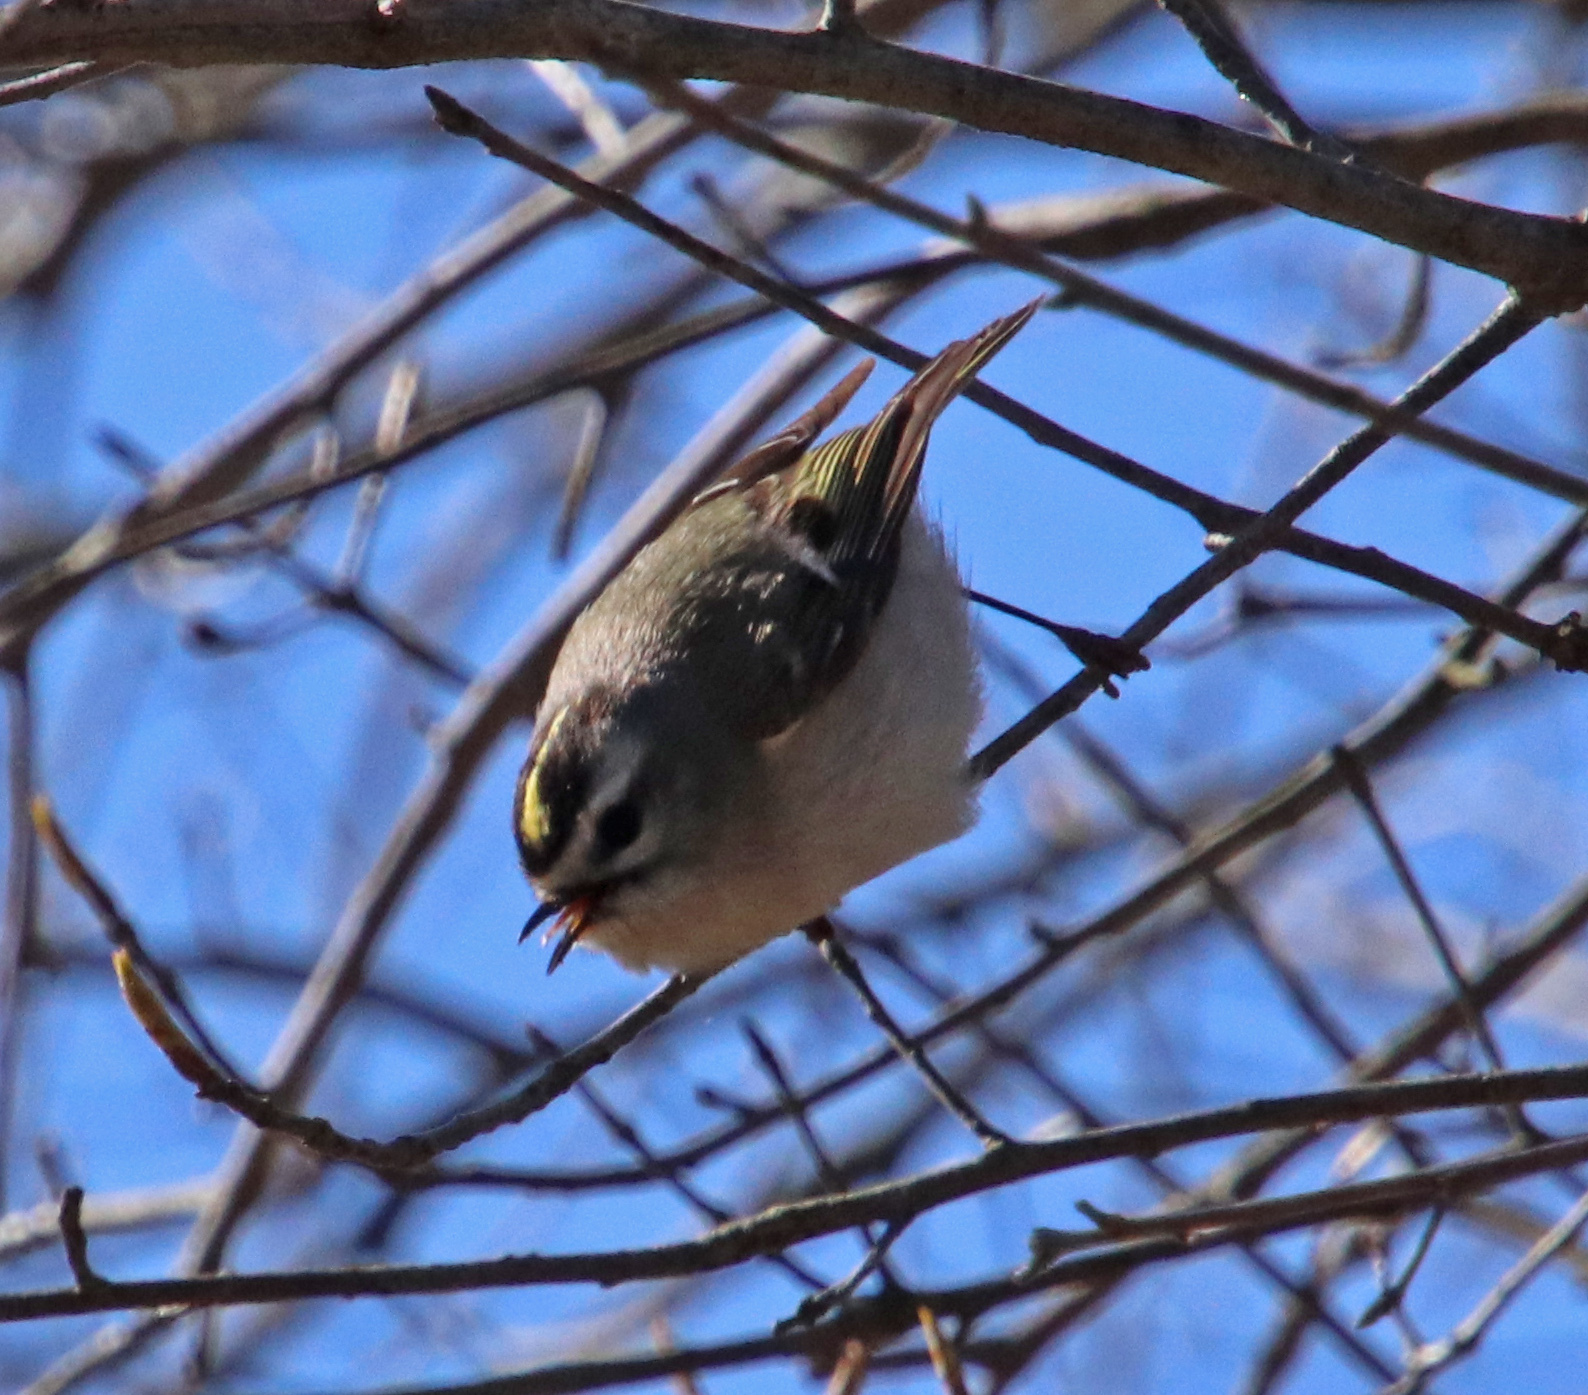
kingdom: Animalia
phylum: Chordata
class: Aves
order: Passeriformes
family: Regulidae
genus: Regulus
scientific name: Regulus satrapa
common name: Golden-crowned kinglet
